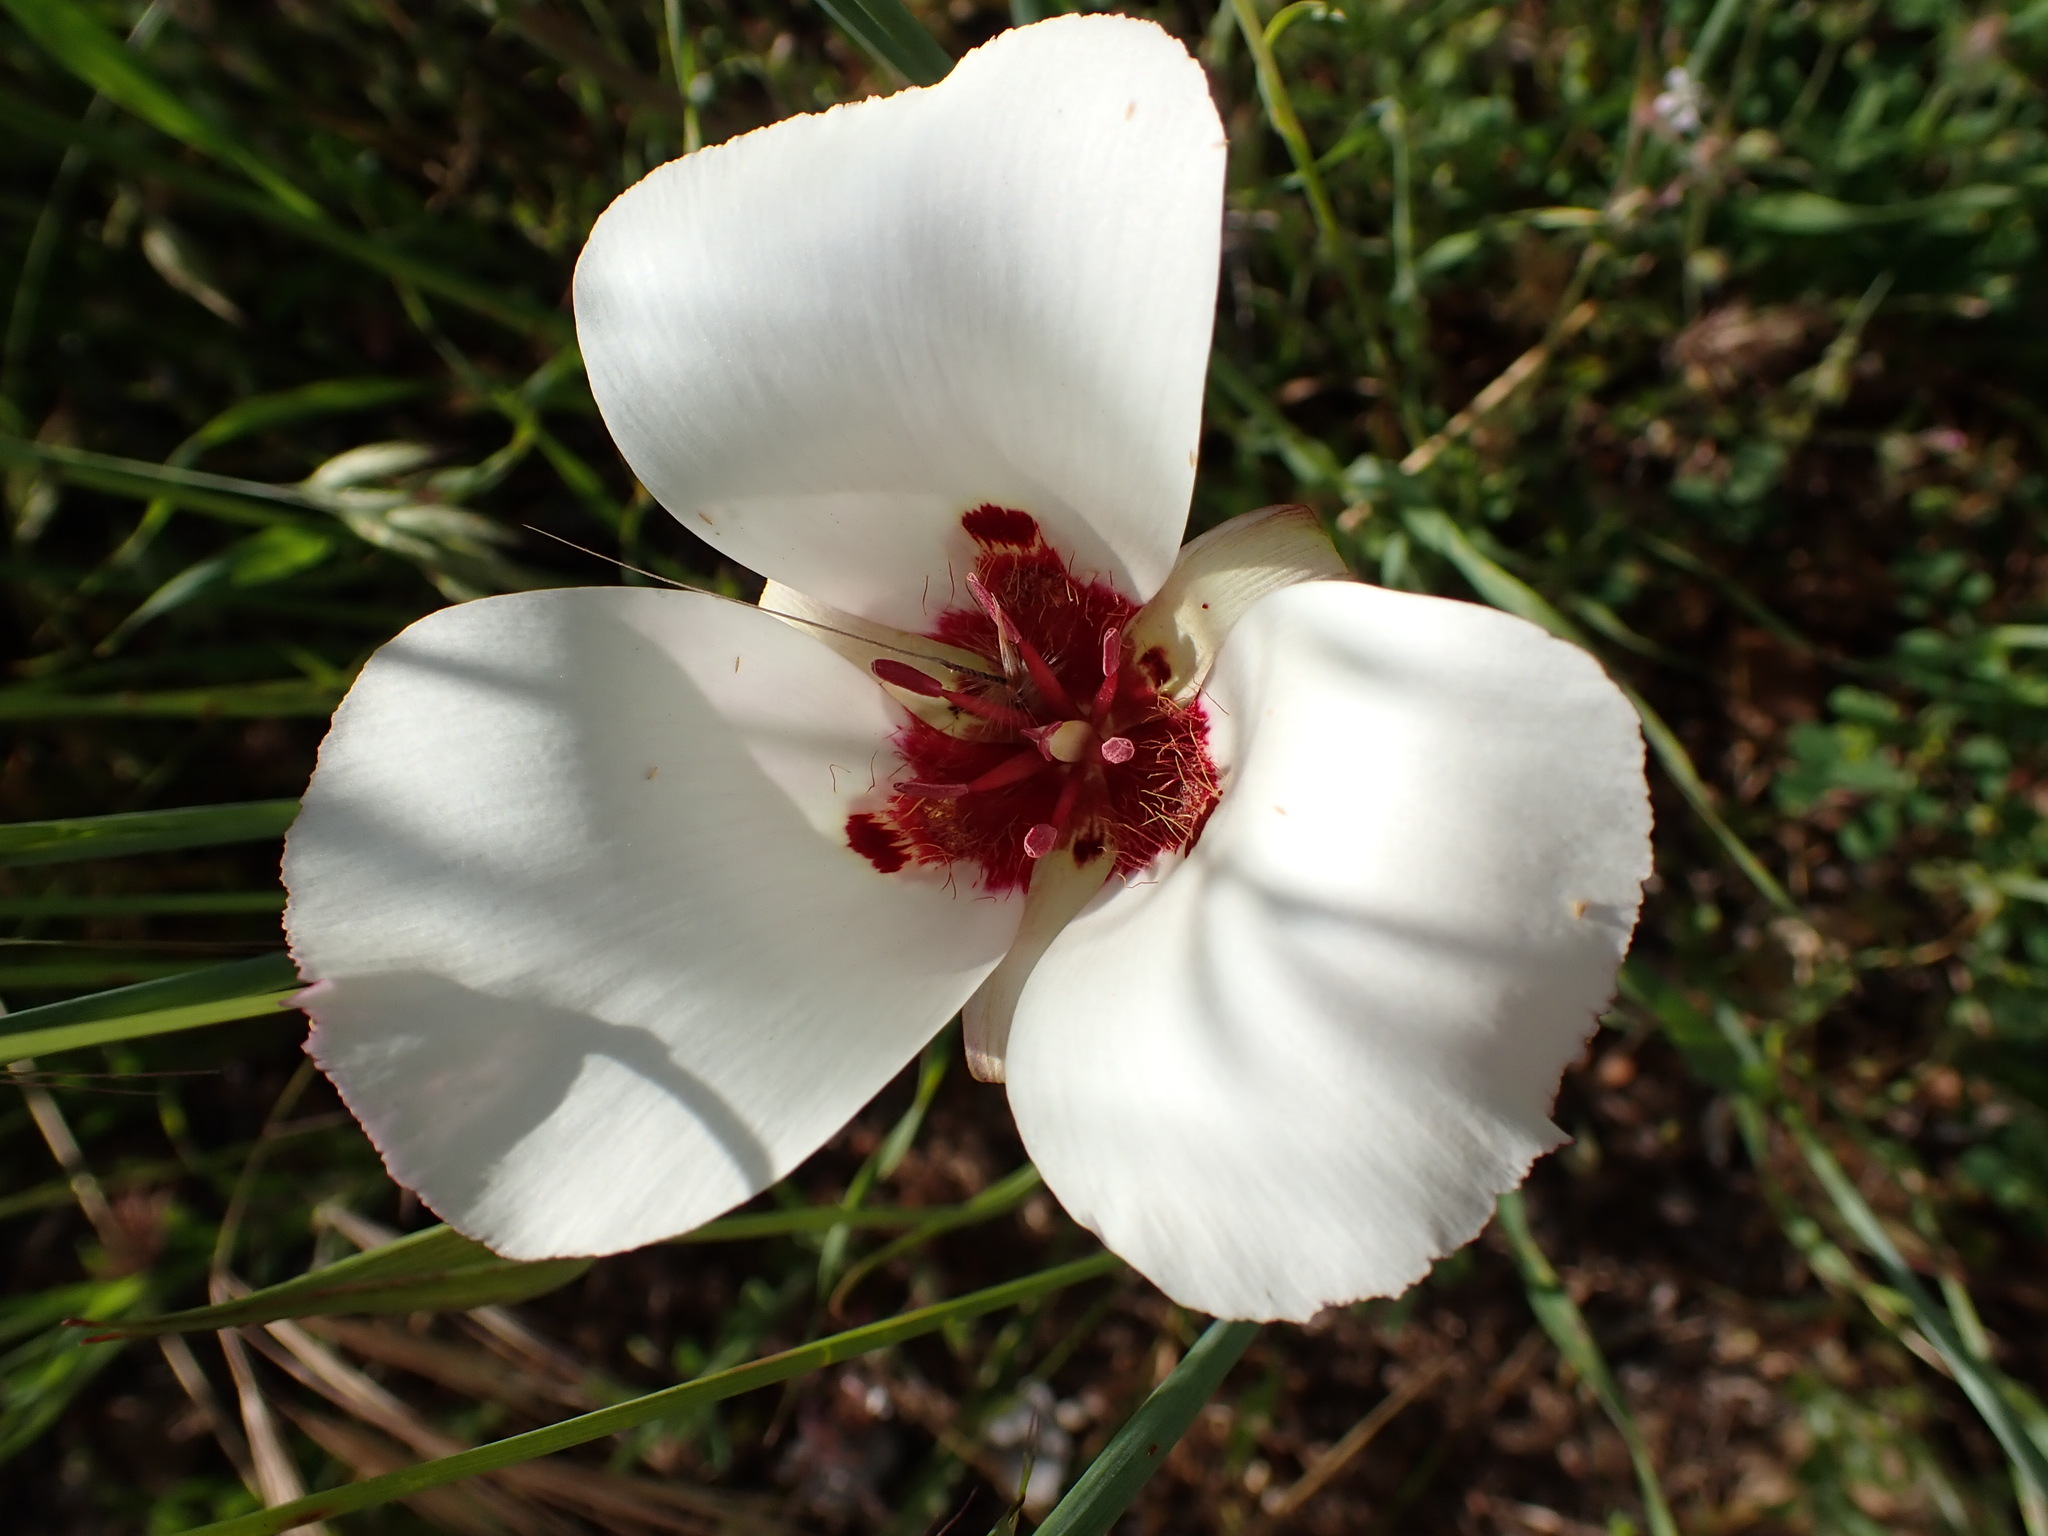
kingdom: Plantae
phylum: Tracheophyta
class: Liliopsida
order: Liliales
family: Liliaceae
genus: Calochortus
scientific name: Calochortus simulans
